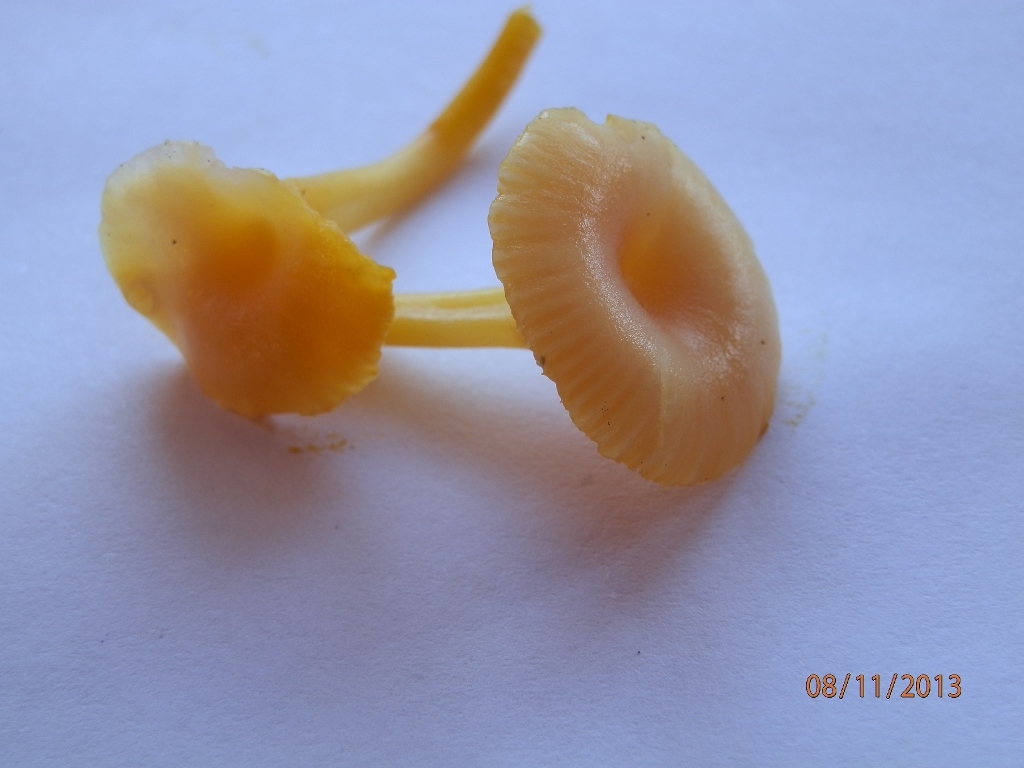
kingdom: Fungi
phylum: Basidiomycota
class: Agaricomycetes
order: Agaricales
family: Hygrophoraceae
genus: Gloioxanthomyces
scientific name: Gloioxanthomyces nitidus
